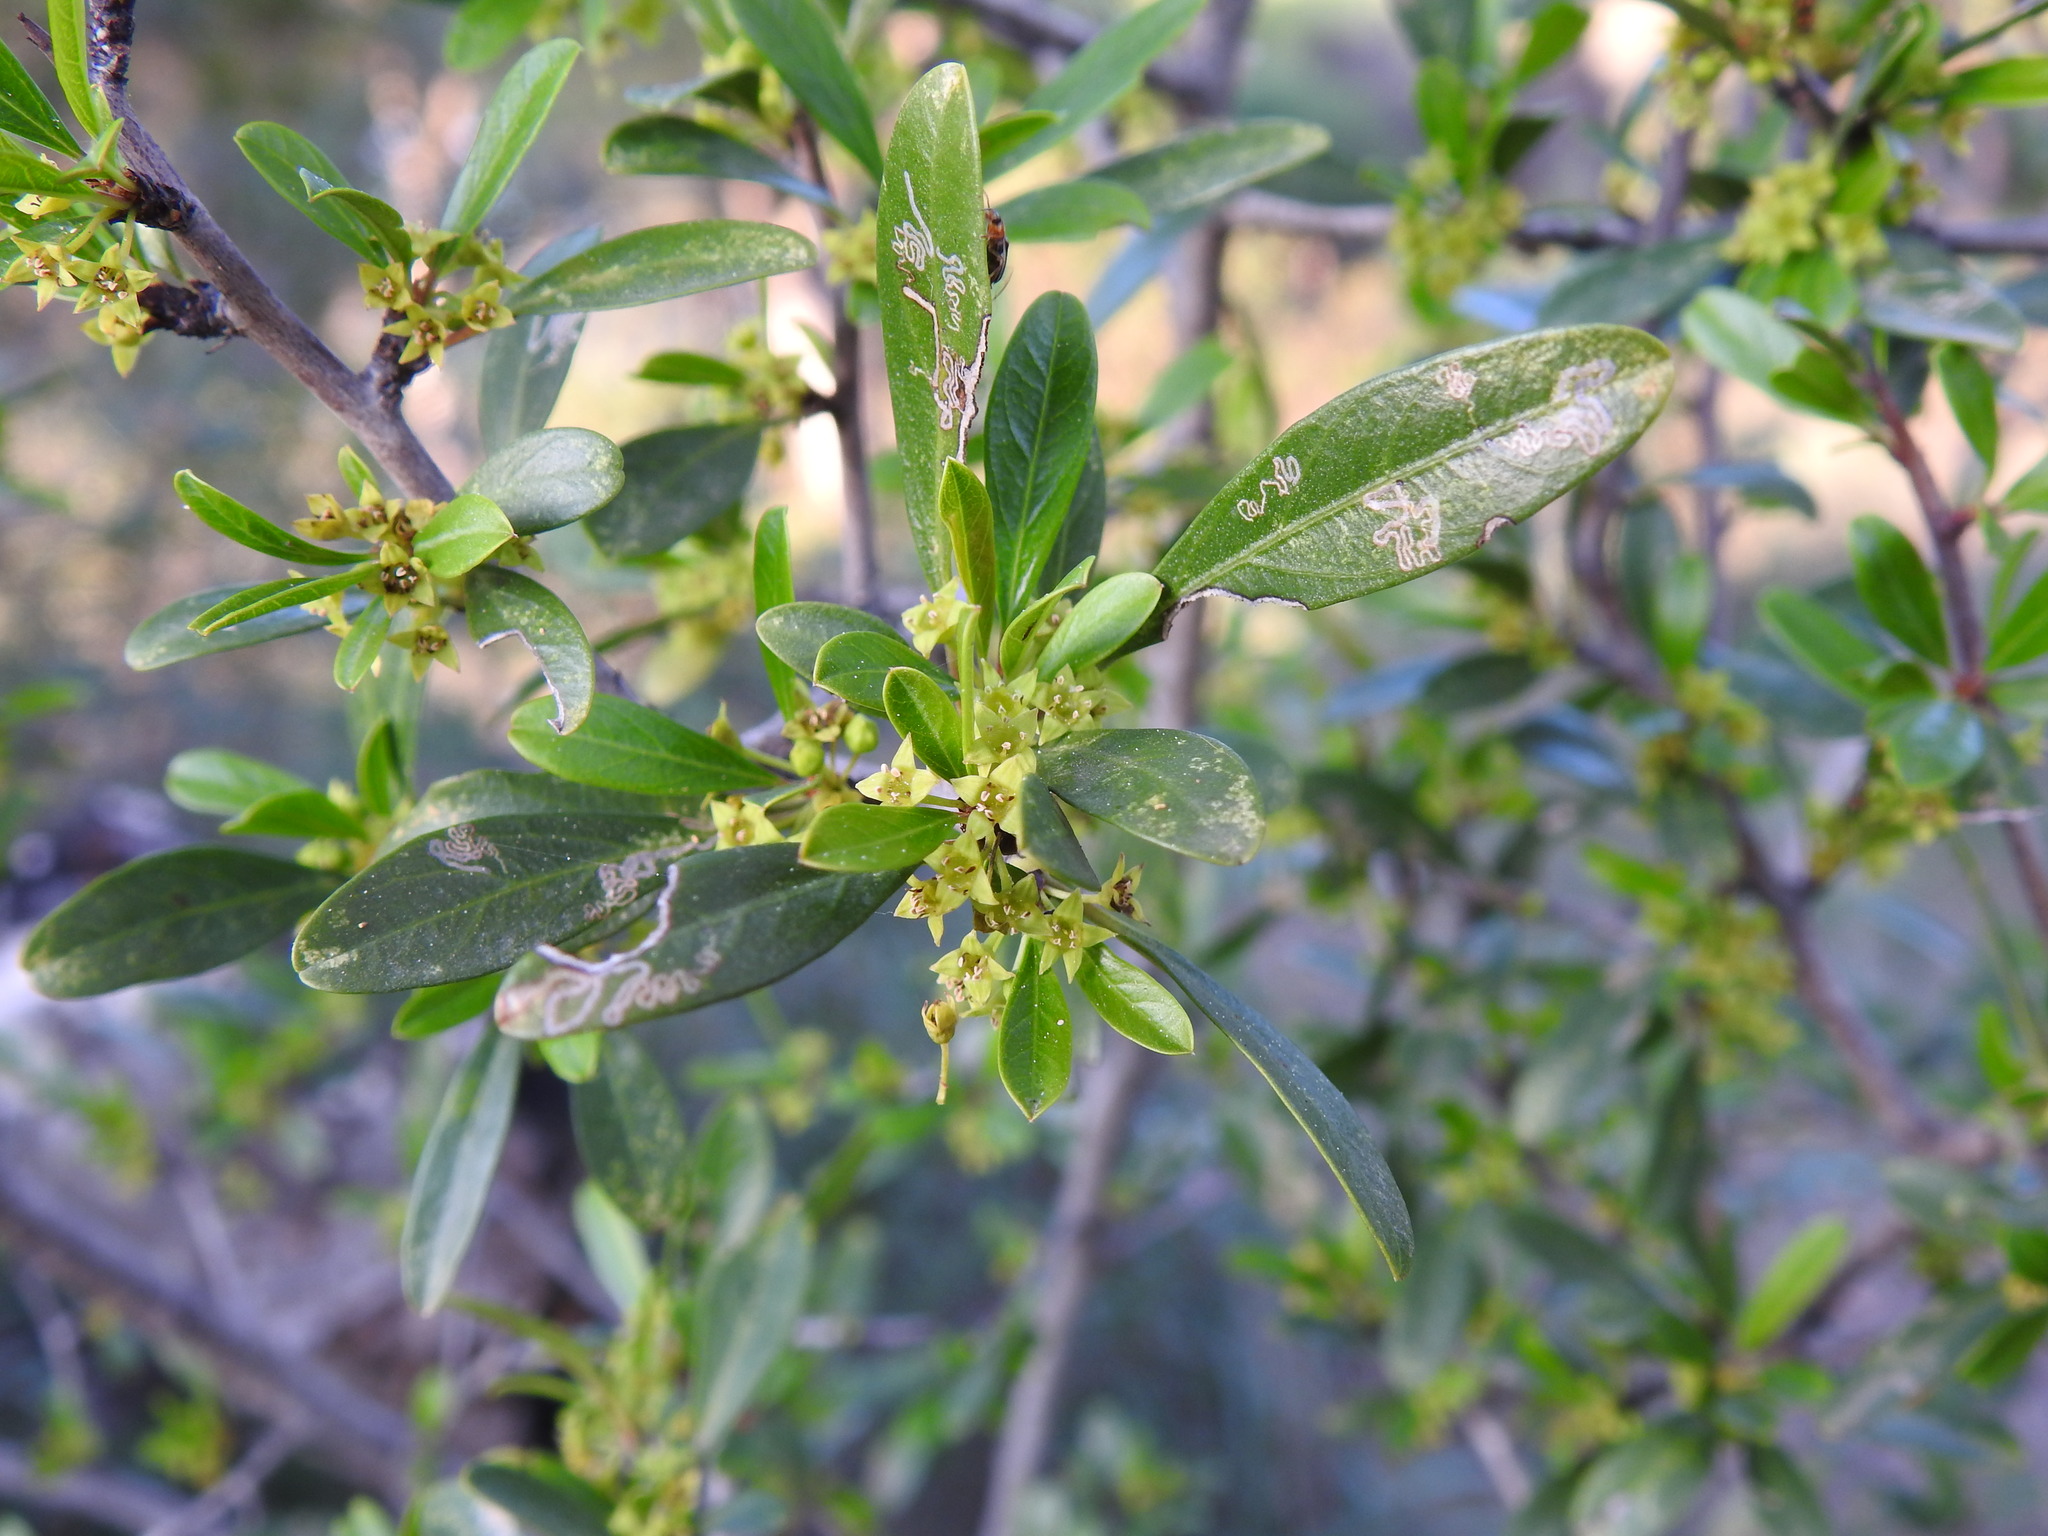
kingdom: Plantae
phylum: Tracheophyta
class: Magnoliopsida
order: Rosales
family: Rhamnaceae
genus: Rhamnus
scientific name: Rhamnus oleoides
